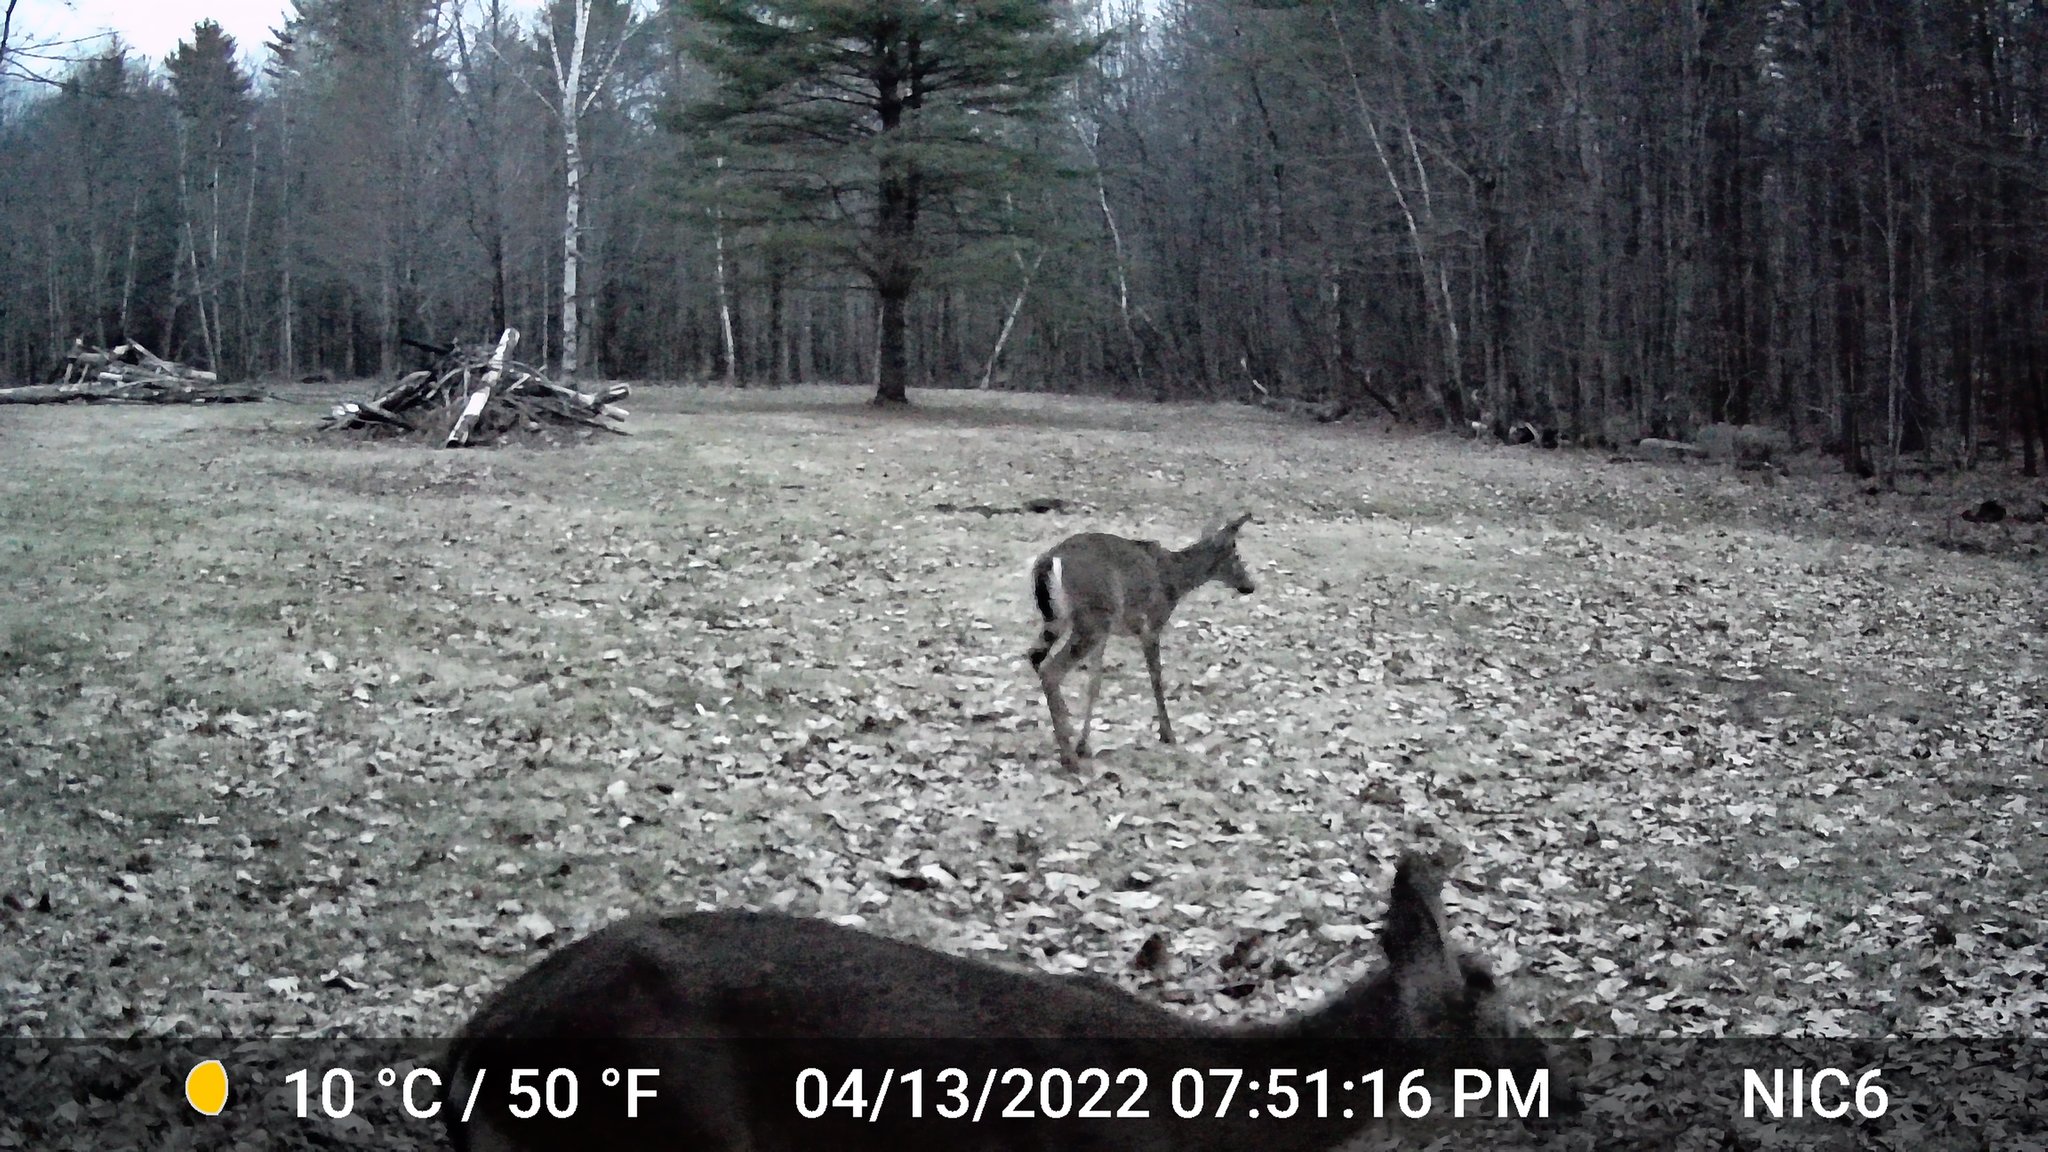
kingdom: Animalia
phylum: Chordata
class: Mammalia
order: Artiodactyla
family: Cervidae
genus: Odocoileus
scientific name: Odocoileus virginianus
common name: White-tailed deer
